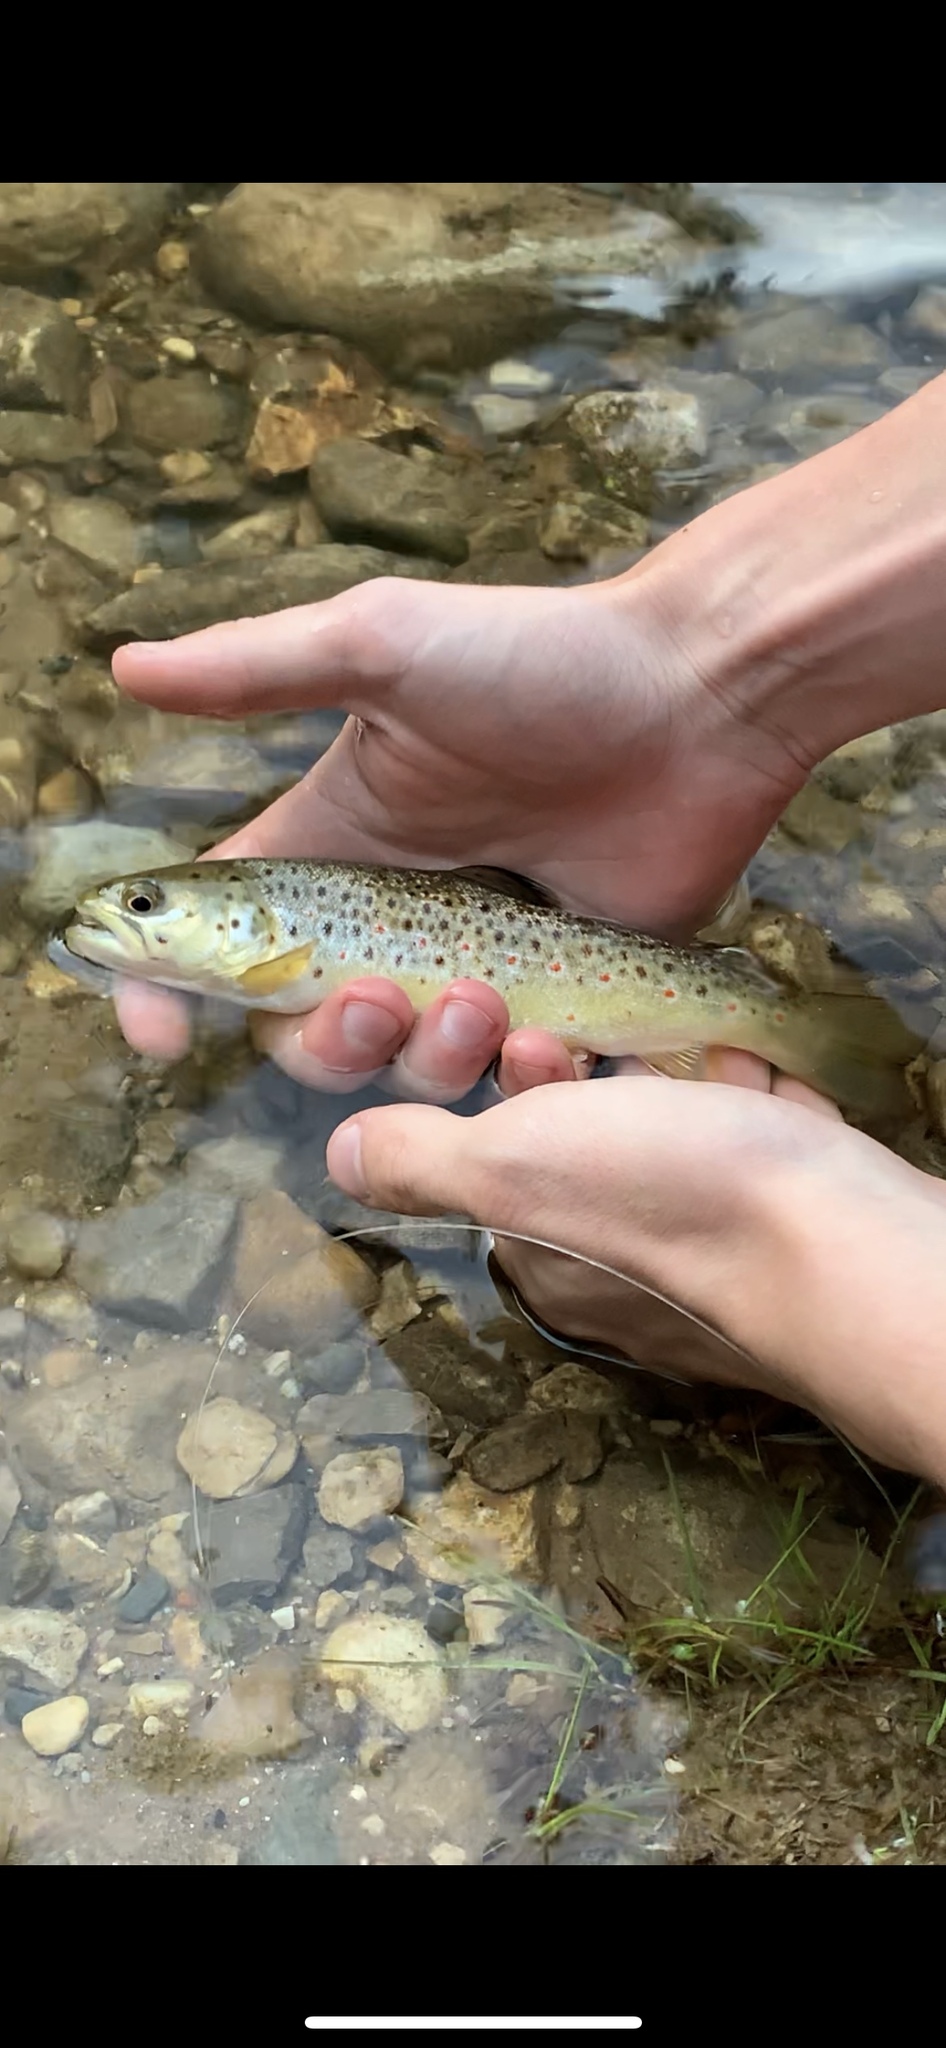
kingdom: Animalia
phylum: Chordata
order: Salmoniformes
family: Salmonidae
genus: Salmo
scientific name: Salmo trutta
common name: Brown trout
